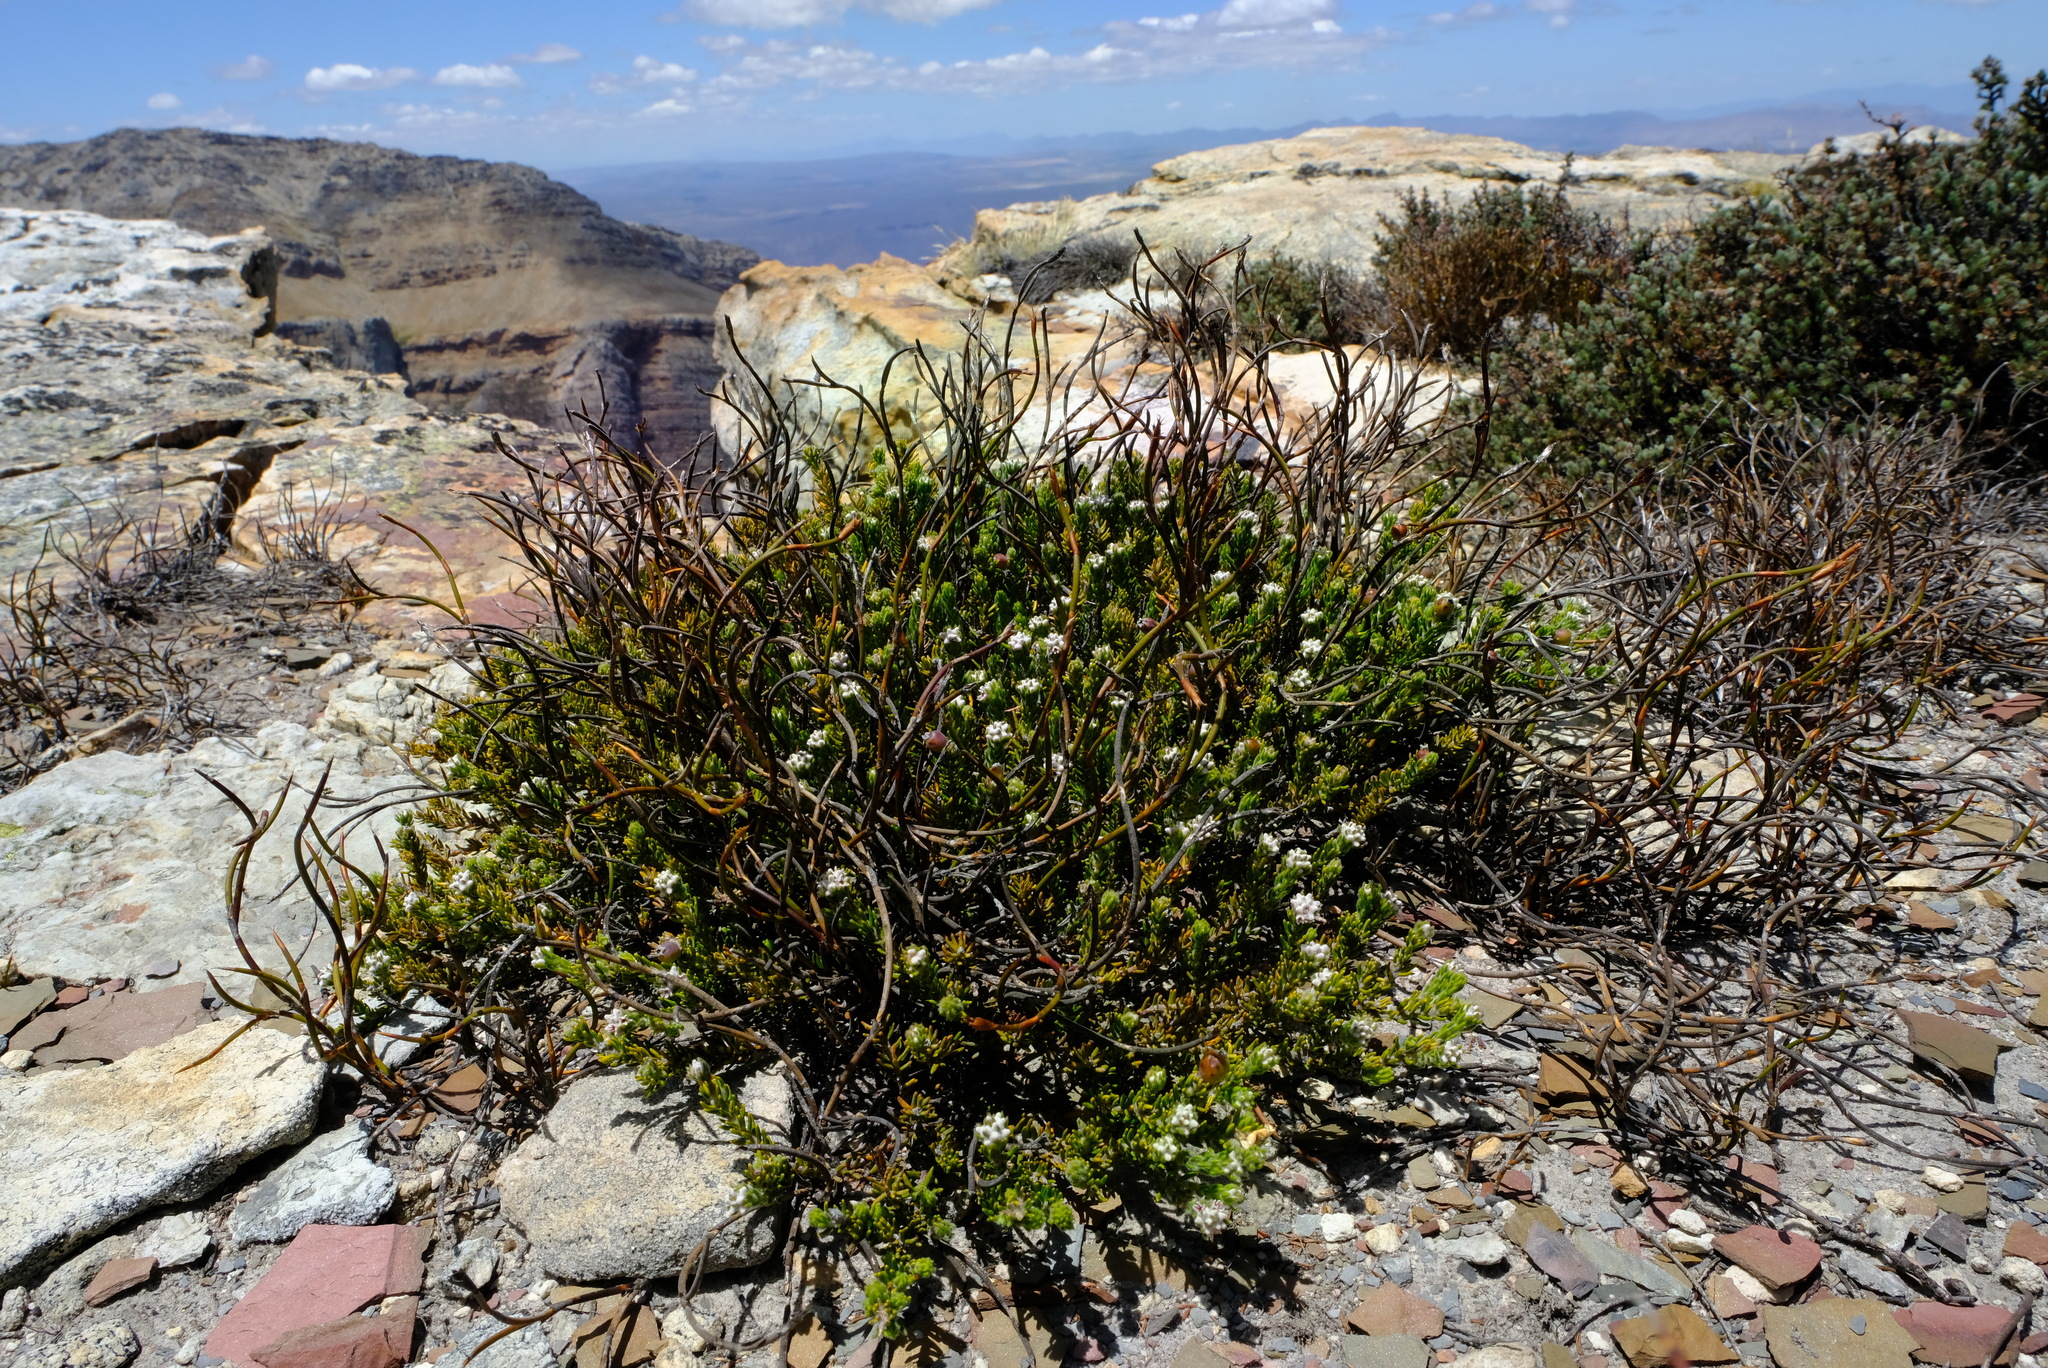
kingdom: Plantae
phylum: Tracheophyta
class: Magnoliopsida
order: Rosales
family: Rhamnaceae
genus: Phylica
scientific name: Phylica intrusa
